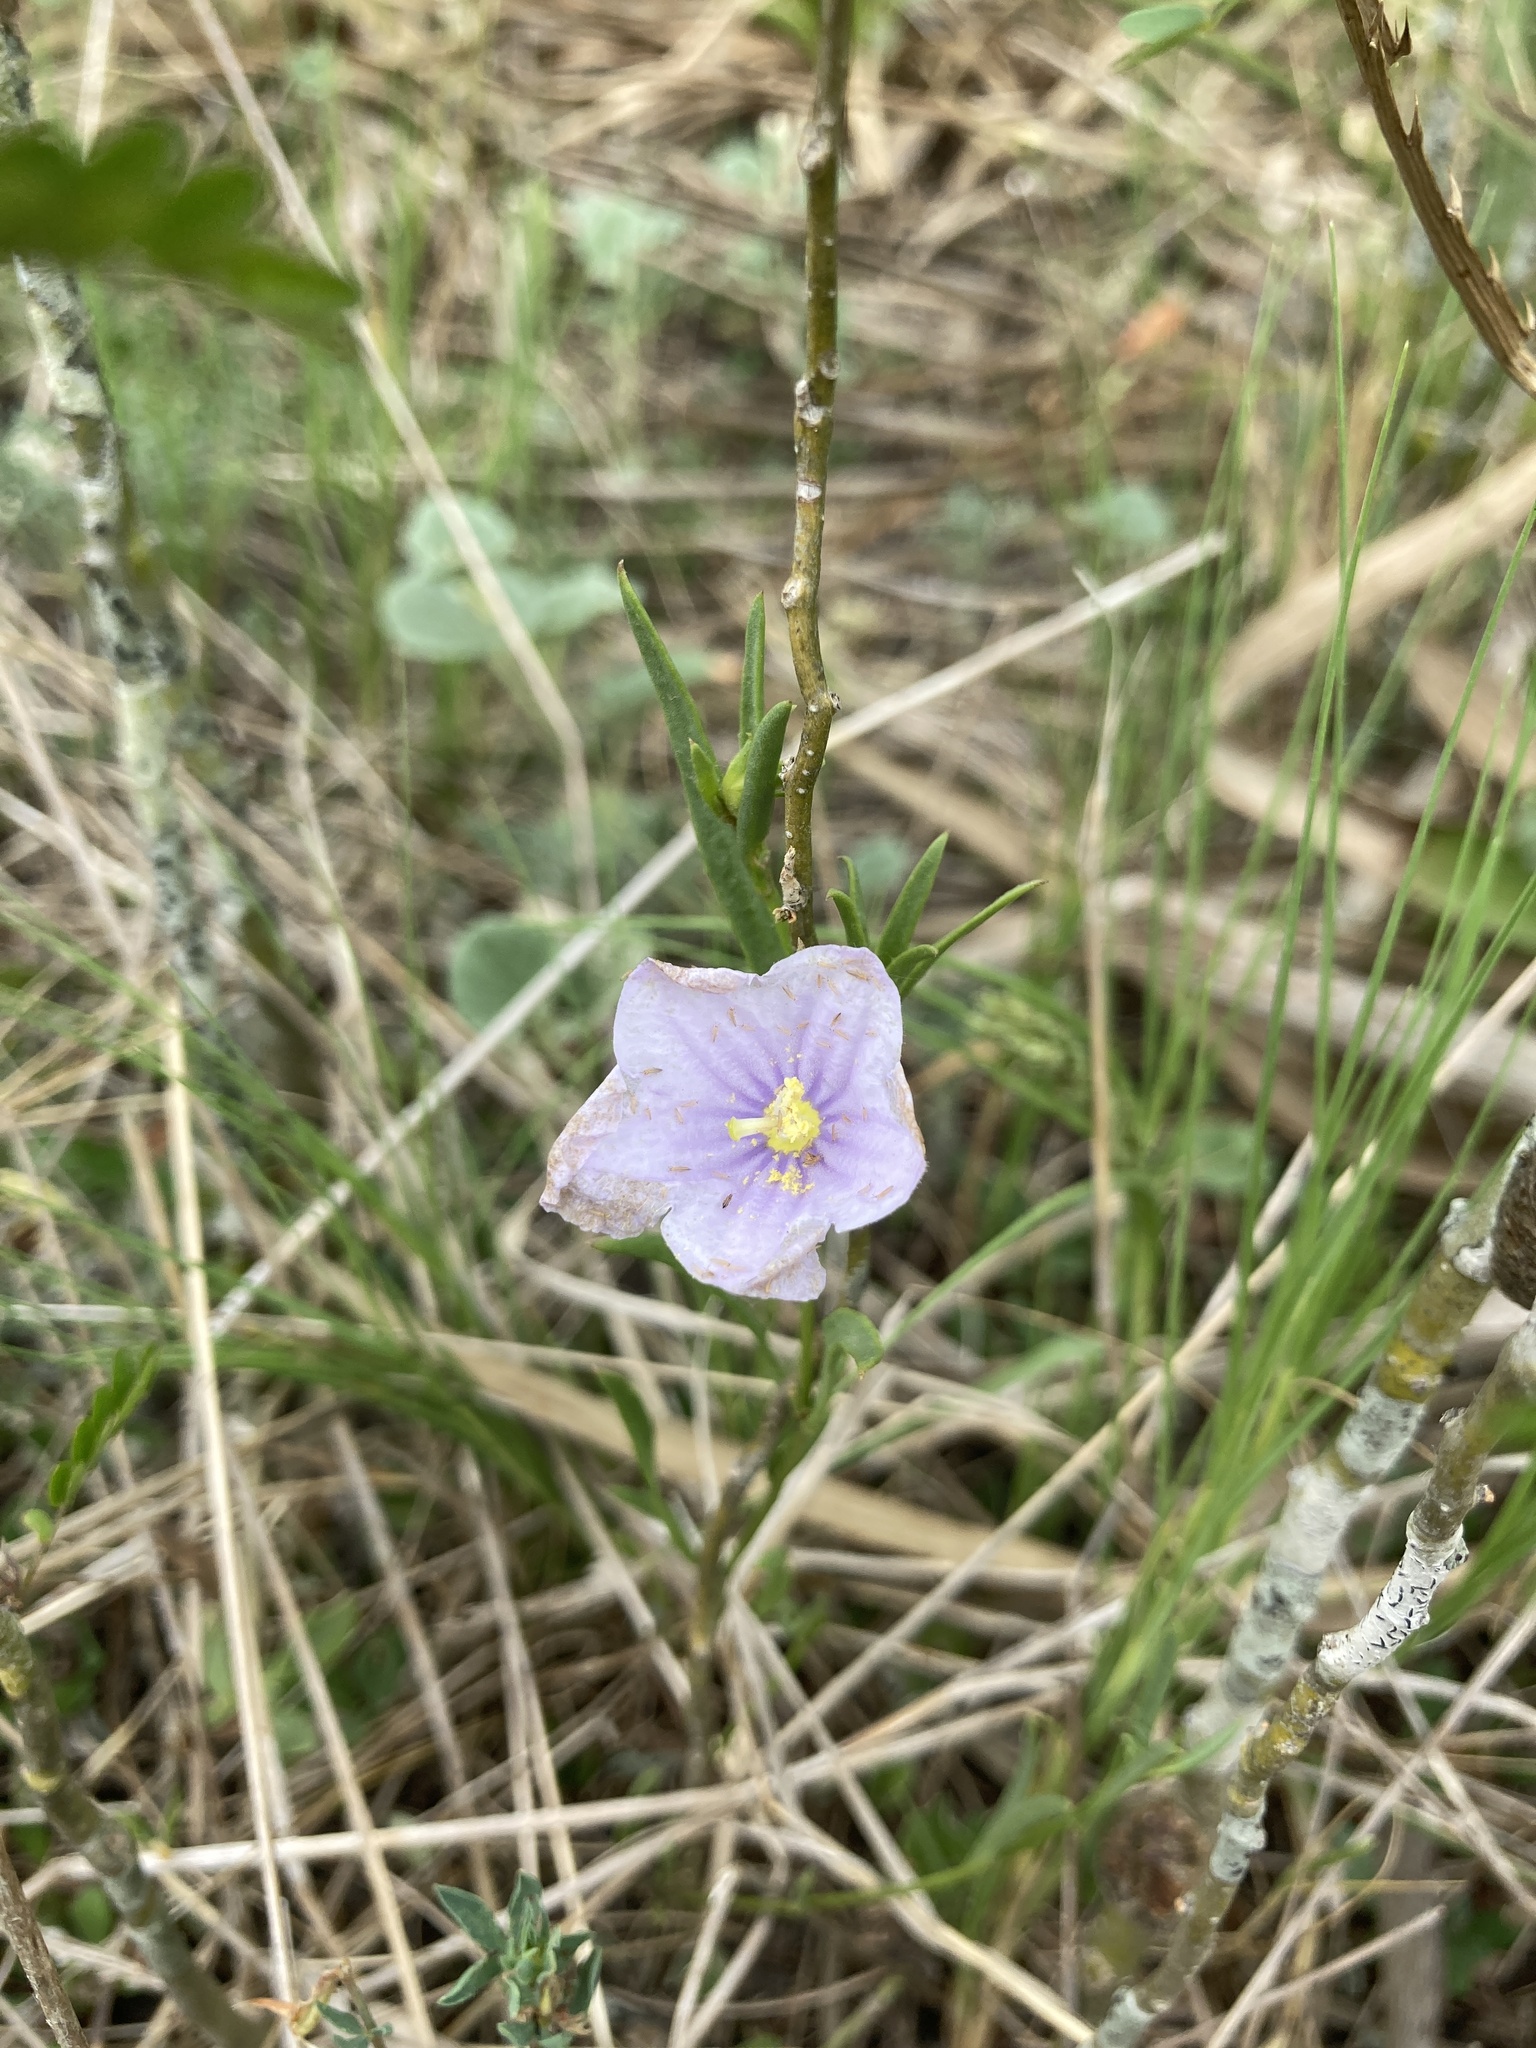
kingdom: Plantae
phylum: Tracheophyta
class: Magnoliopsida
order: Solanales
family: Solanaceae
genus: Nierembergia
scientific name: Nierembergia aristata
